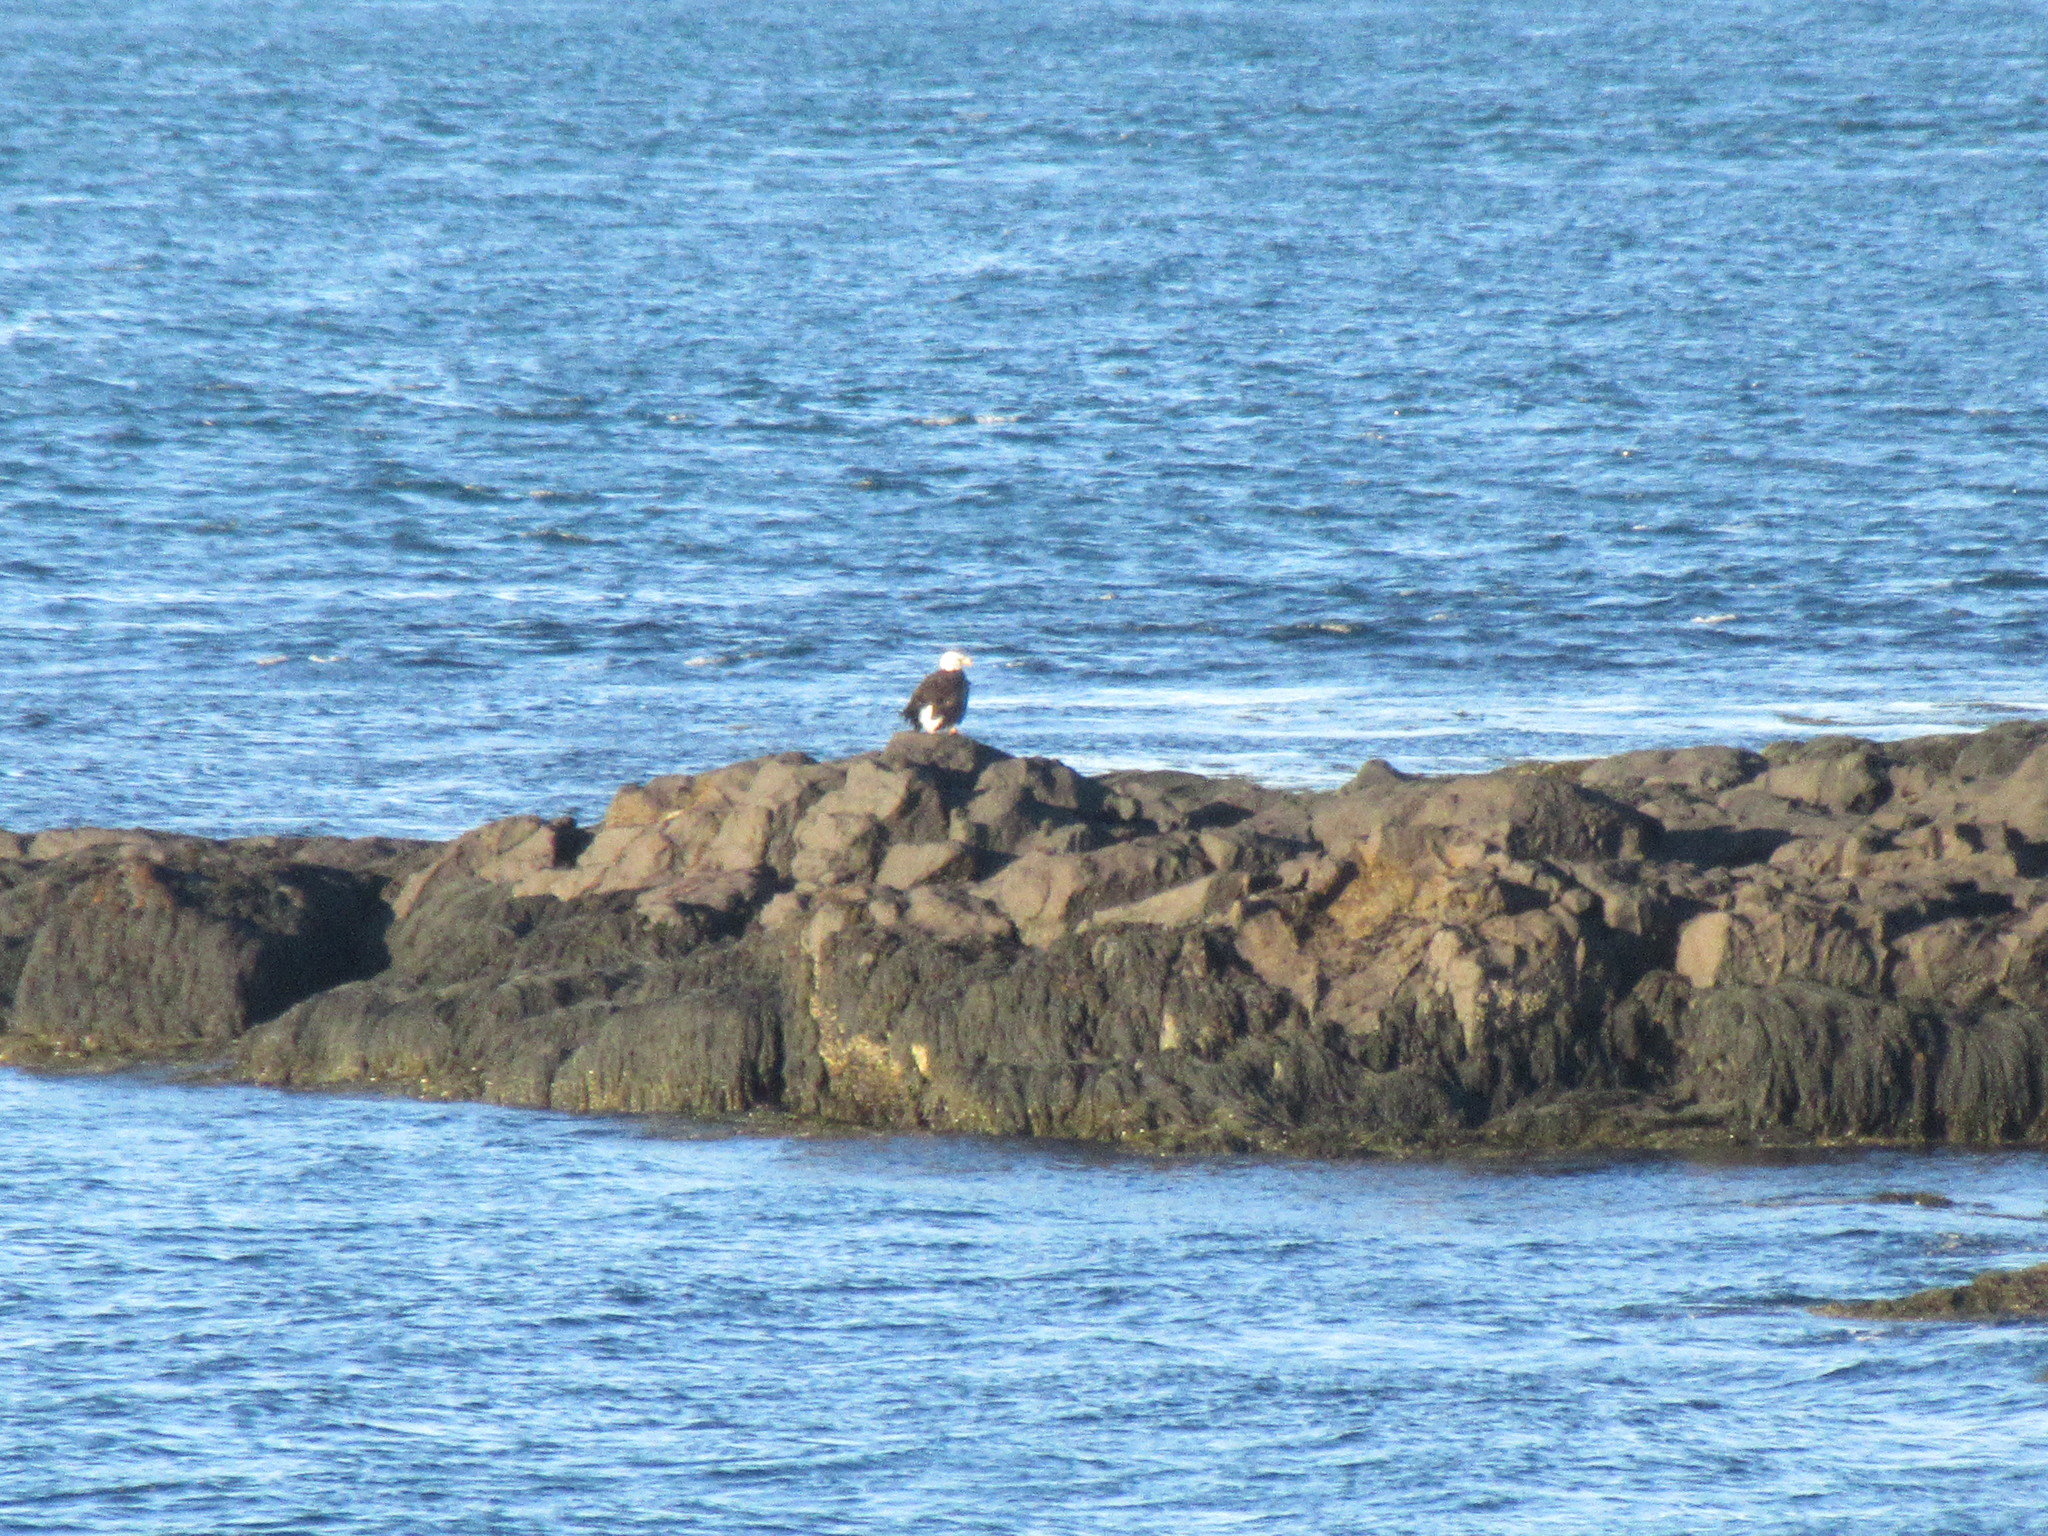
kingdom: Animalia
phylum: Chordata
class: Aves
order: Accipitriformes
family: Accipitridae
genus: Haliaeetus
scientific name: Haliaeetus leucocephalus
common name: Bald eagle
